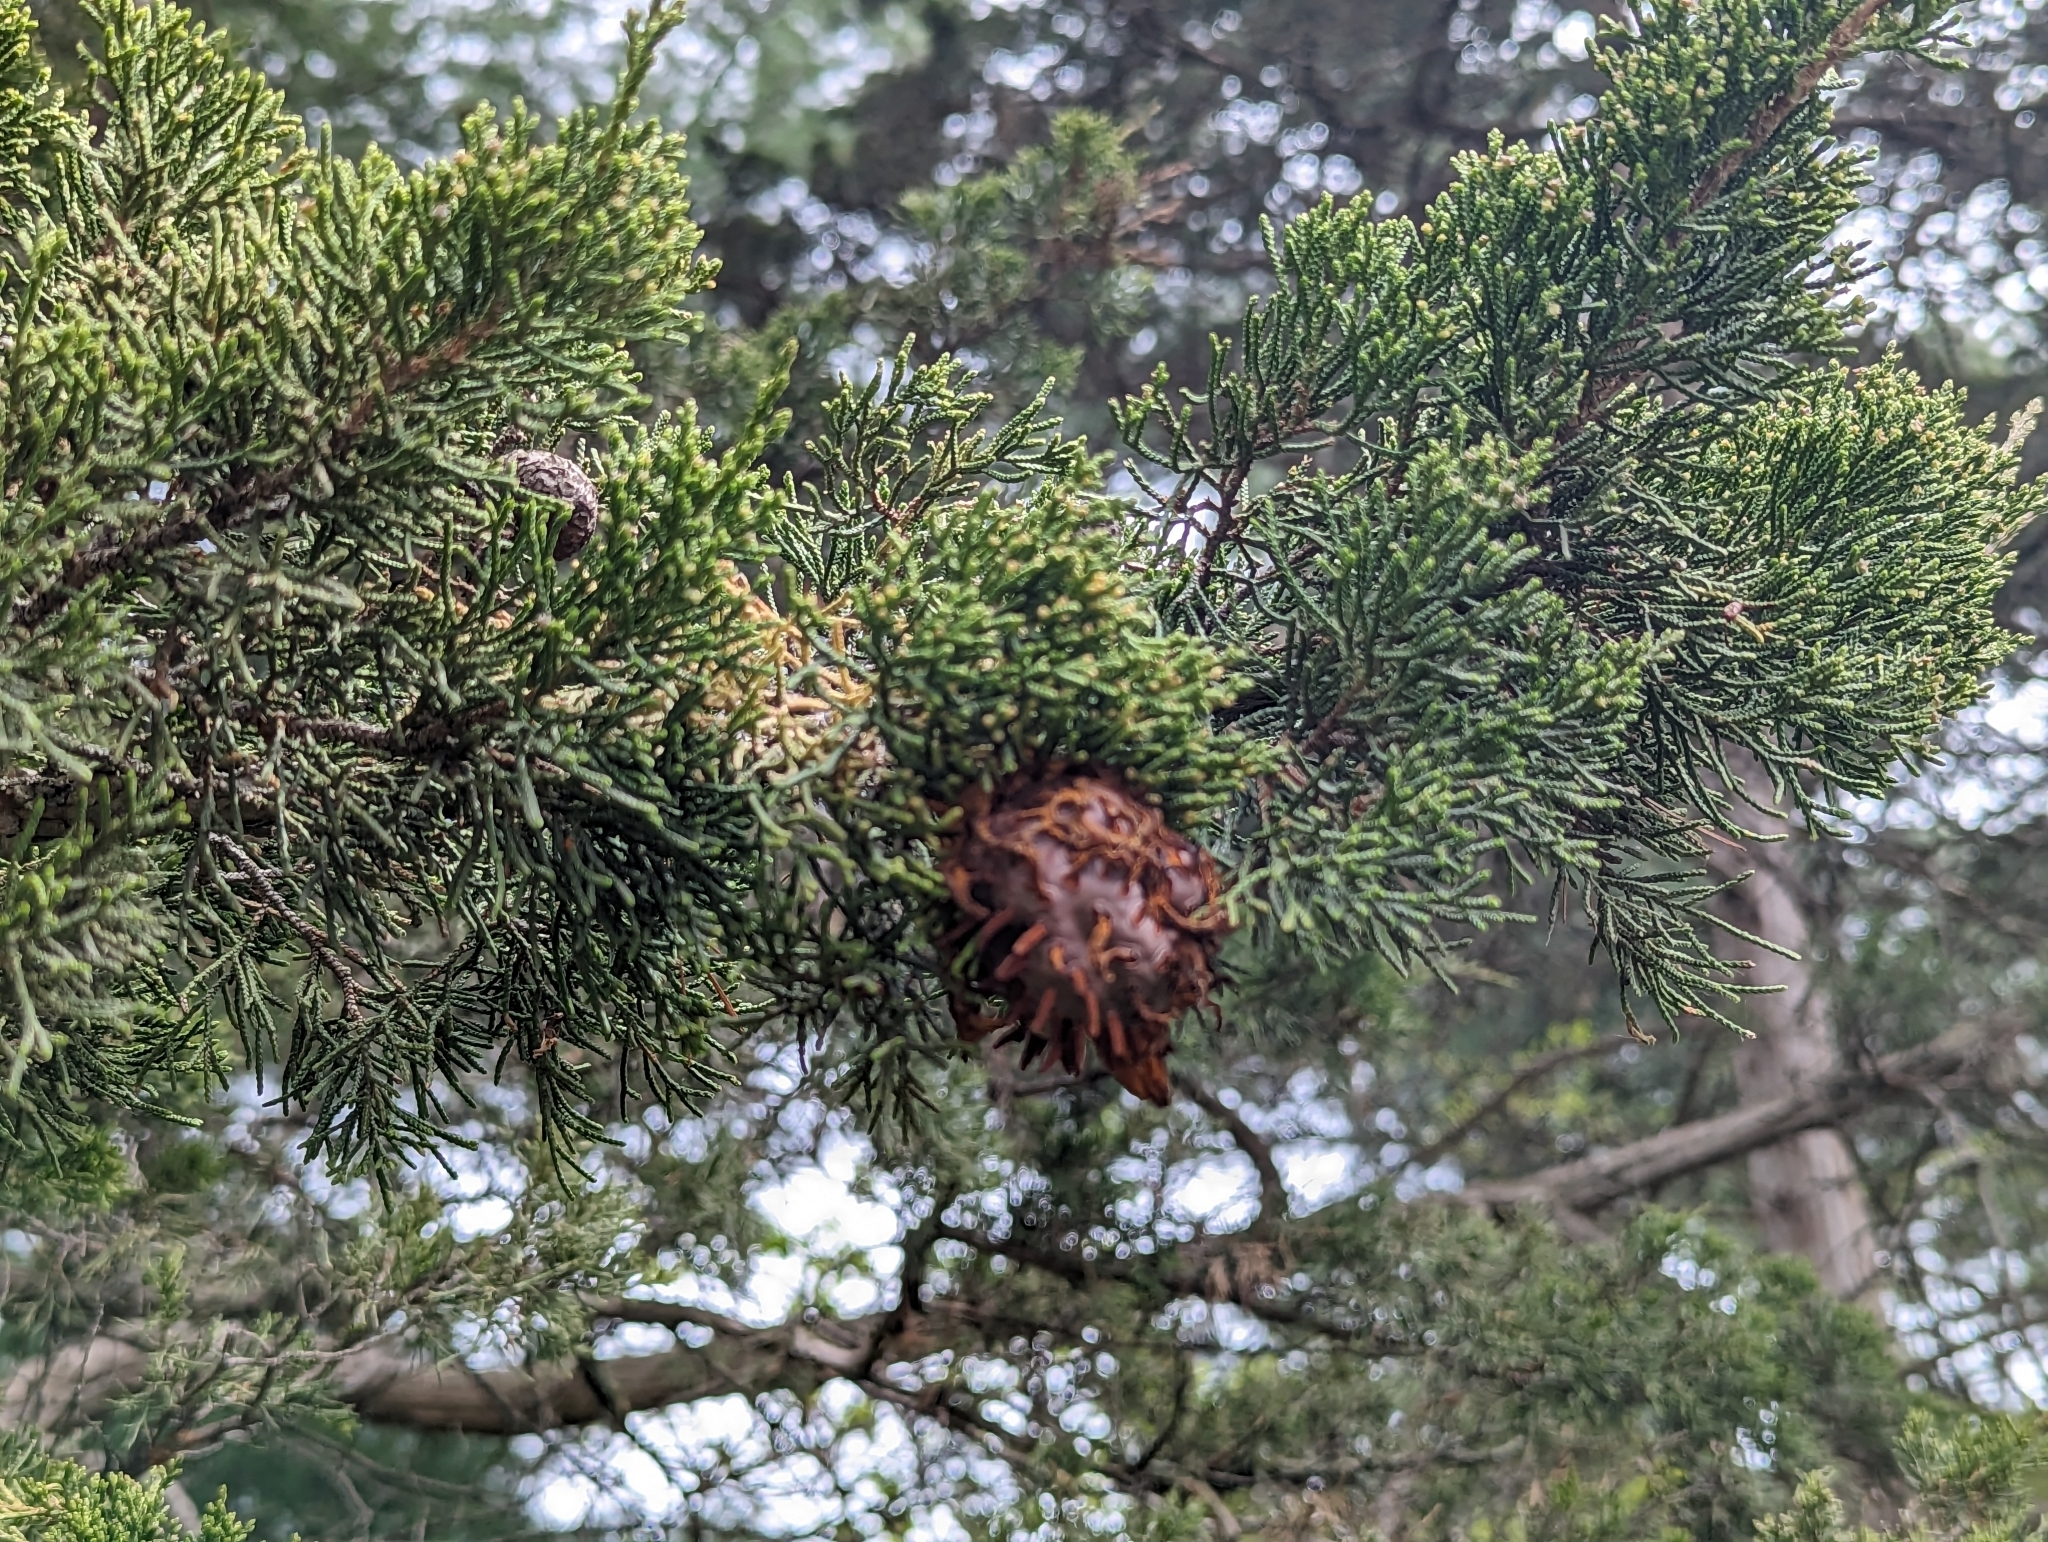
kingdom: Fungi
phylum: Basidiomycota
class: Pucciniomycetes
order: Pucciniales
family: Gymnosporangiaceae
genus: Gymnosporangium
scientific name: Gymnosporangium juniperi-virginianae
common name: Juniper-apple rust
